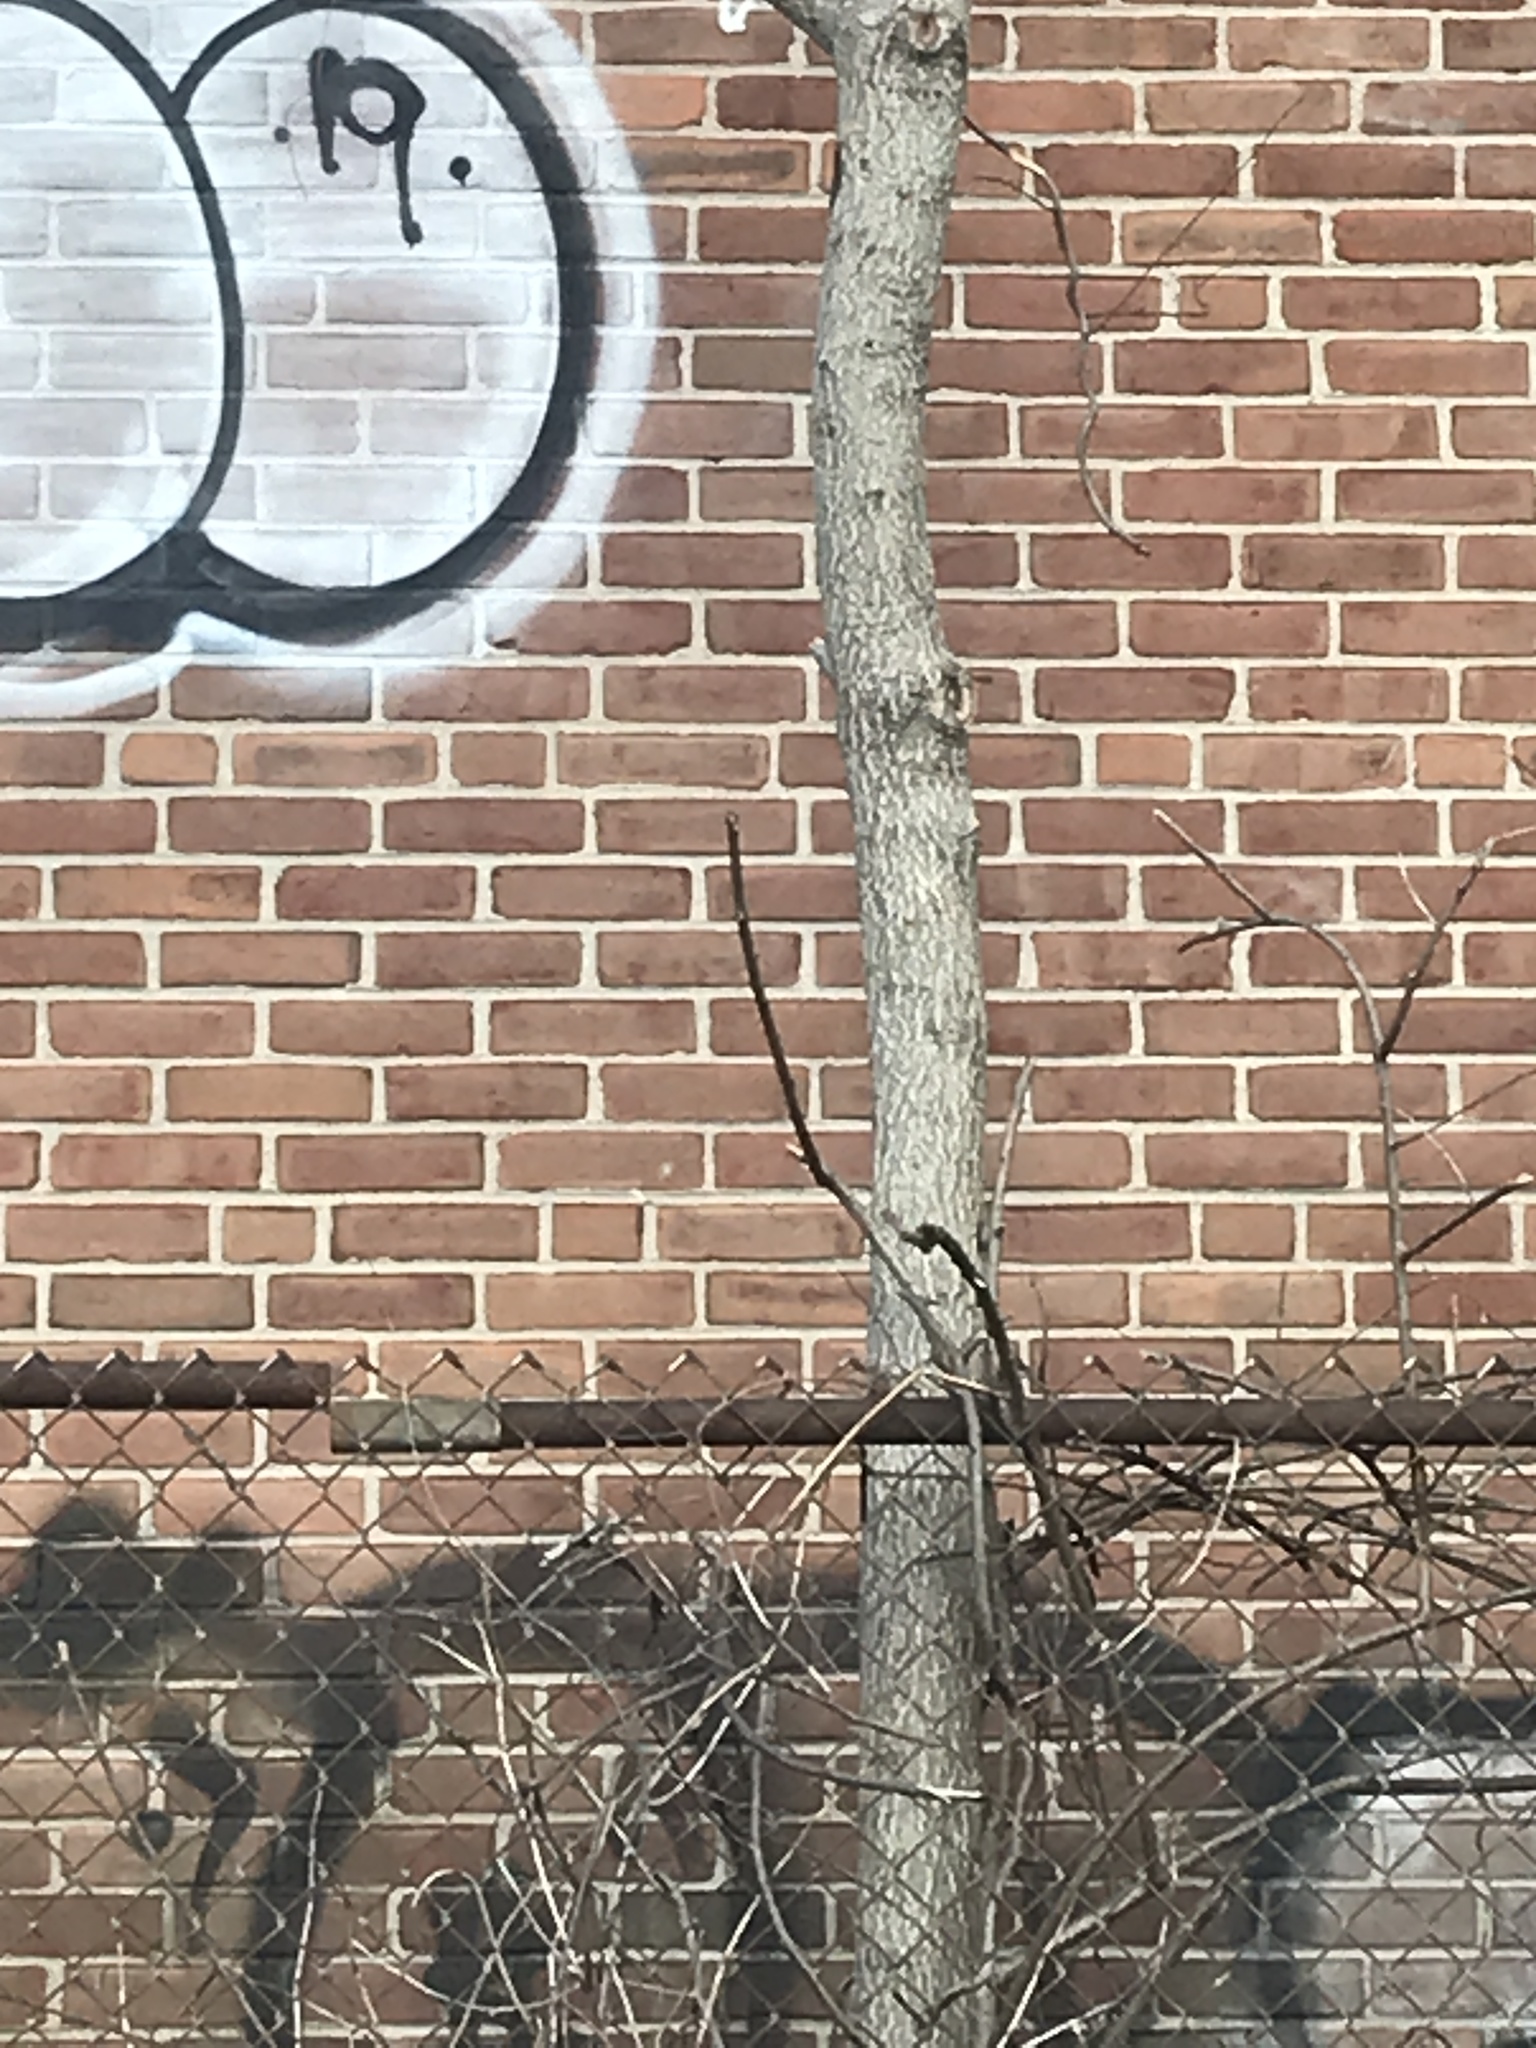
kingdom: Plantae
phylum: Tracheophyta
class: Magnoliopsida
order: Sapindales
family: Simaroubaceae
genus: Ailanthus
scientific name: Ailanthus altissima
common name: Tree-of-heaven
